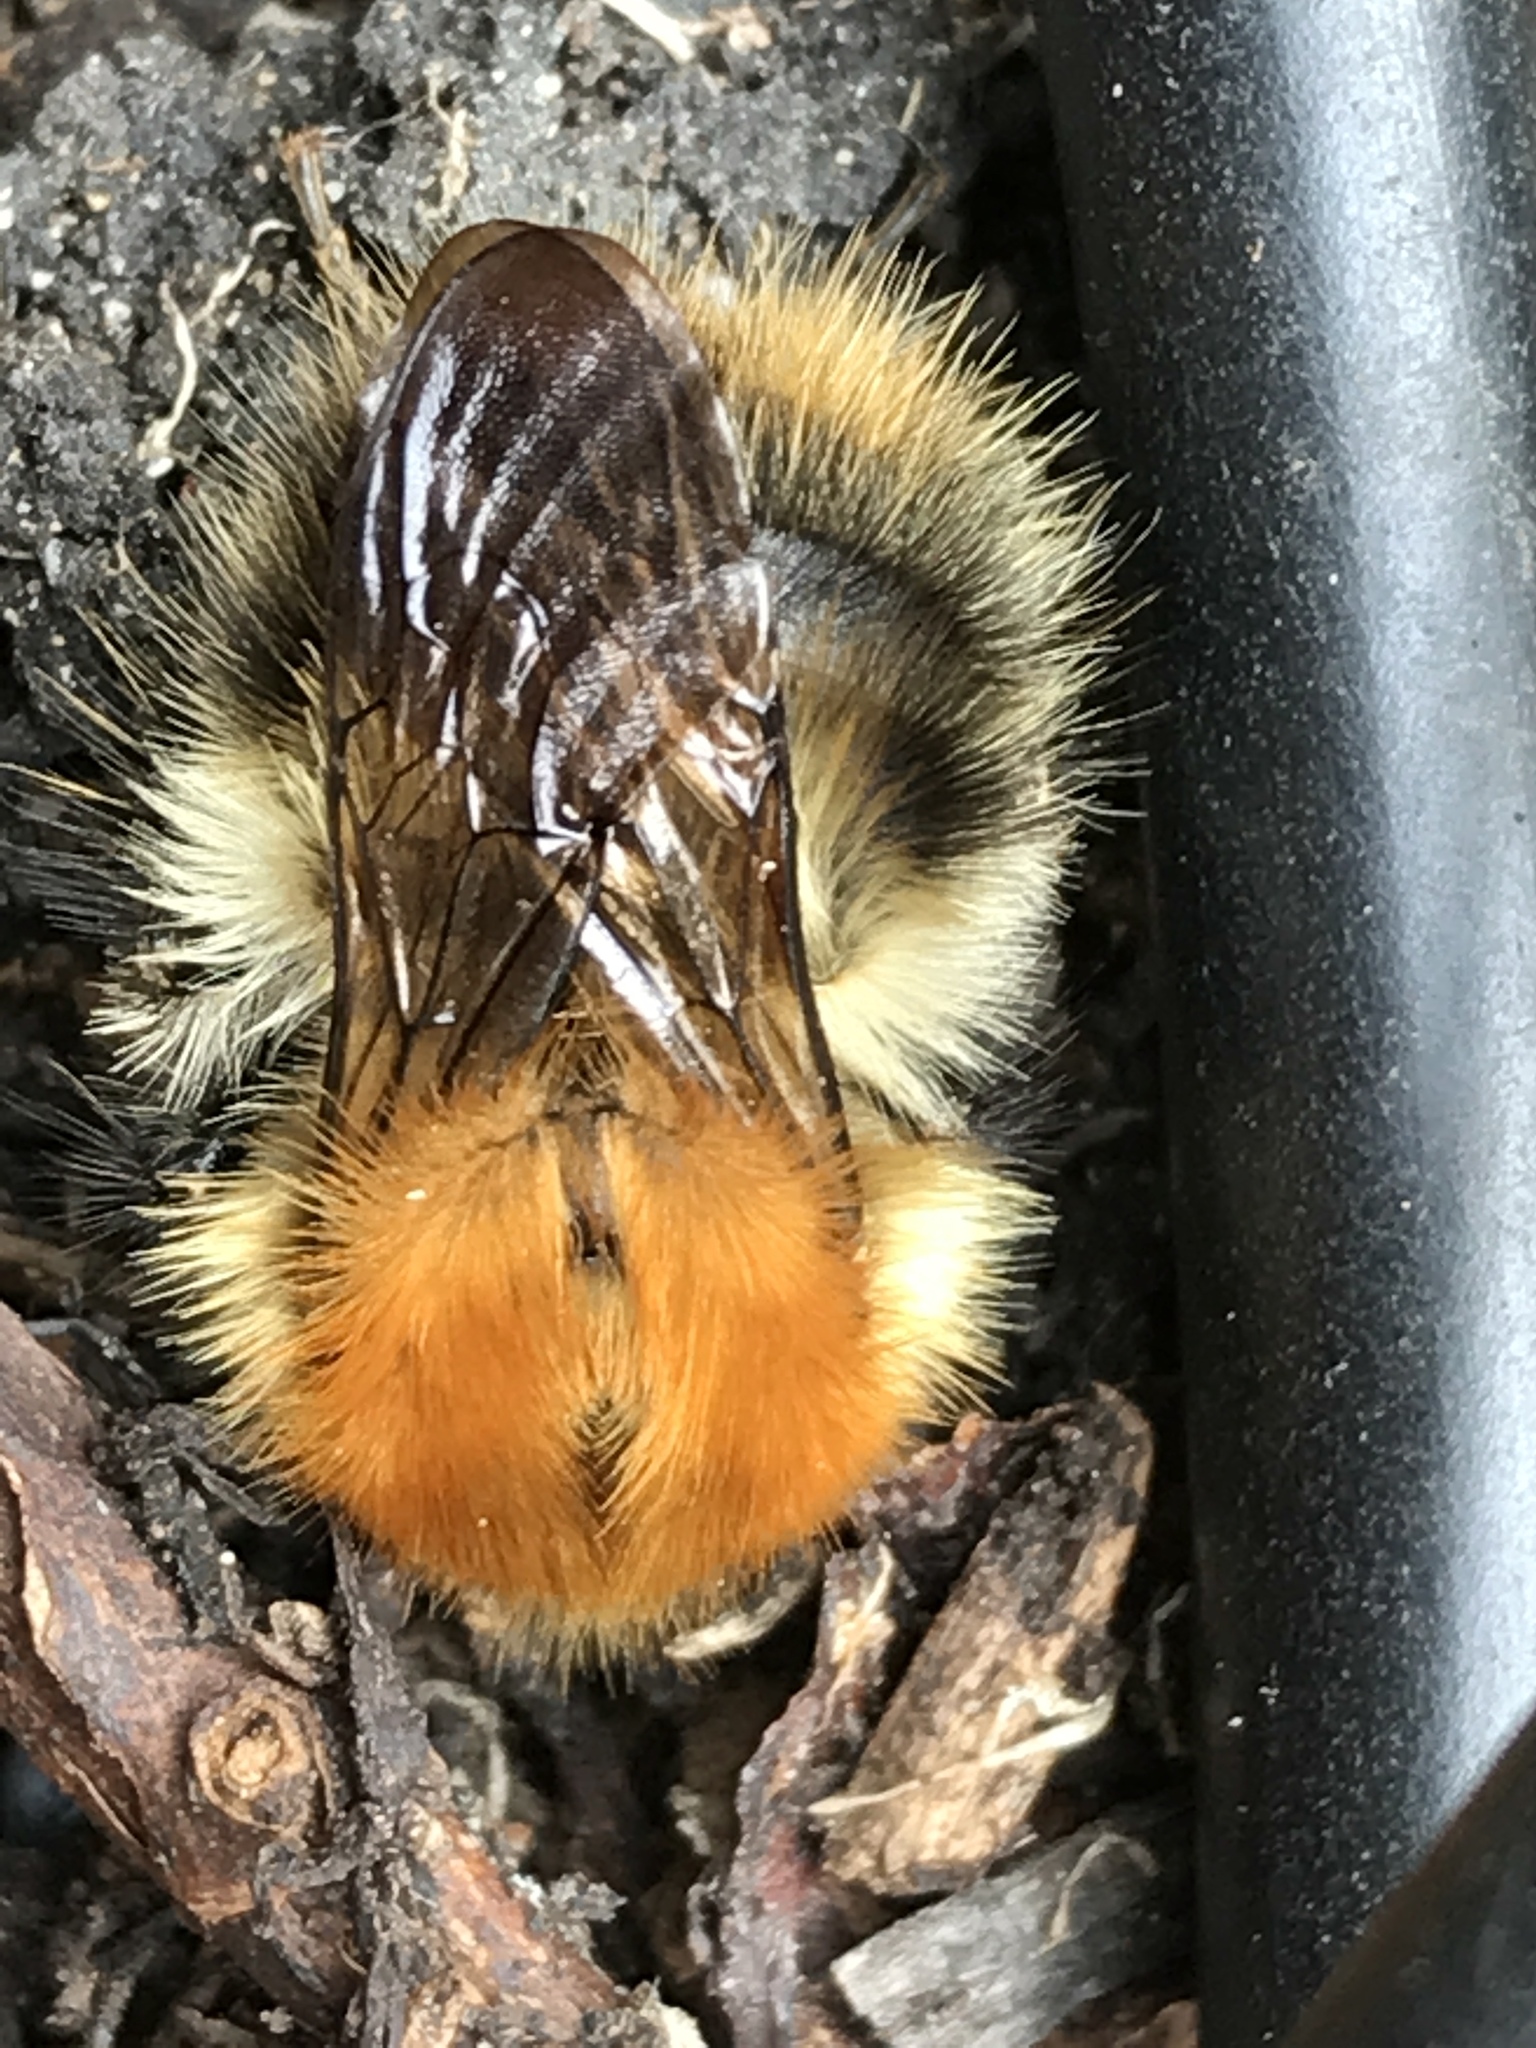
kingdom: Animalia
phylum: Arthropoda
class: Insecta
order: Hymenoptera
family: Apidae
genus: Bombus
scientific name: Bombus pascuorum
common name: Common carder bee
